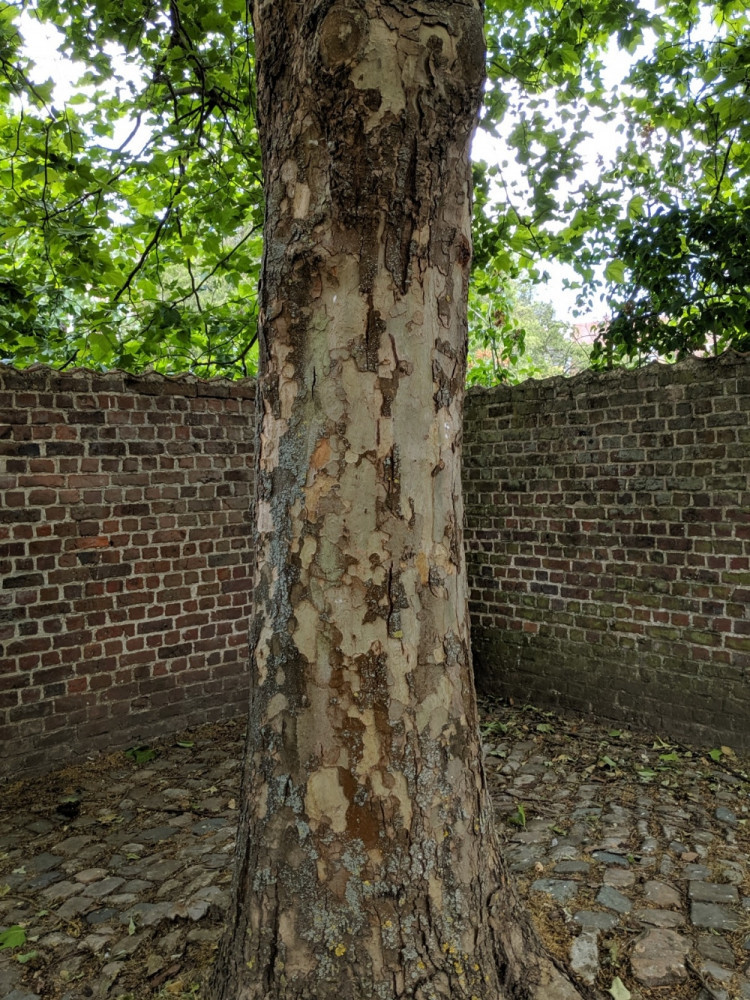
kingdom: Plantae
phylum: Tracheophyta
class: Magnoliopsida
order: Proteales
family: Platanaceae
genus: Platanus
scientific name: Platanus hispanica
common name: London plane
